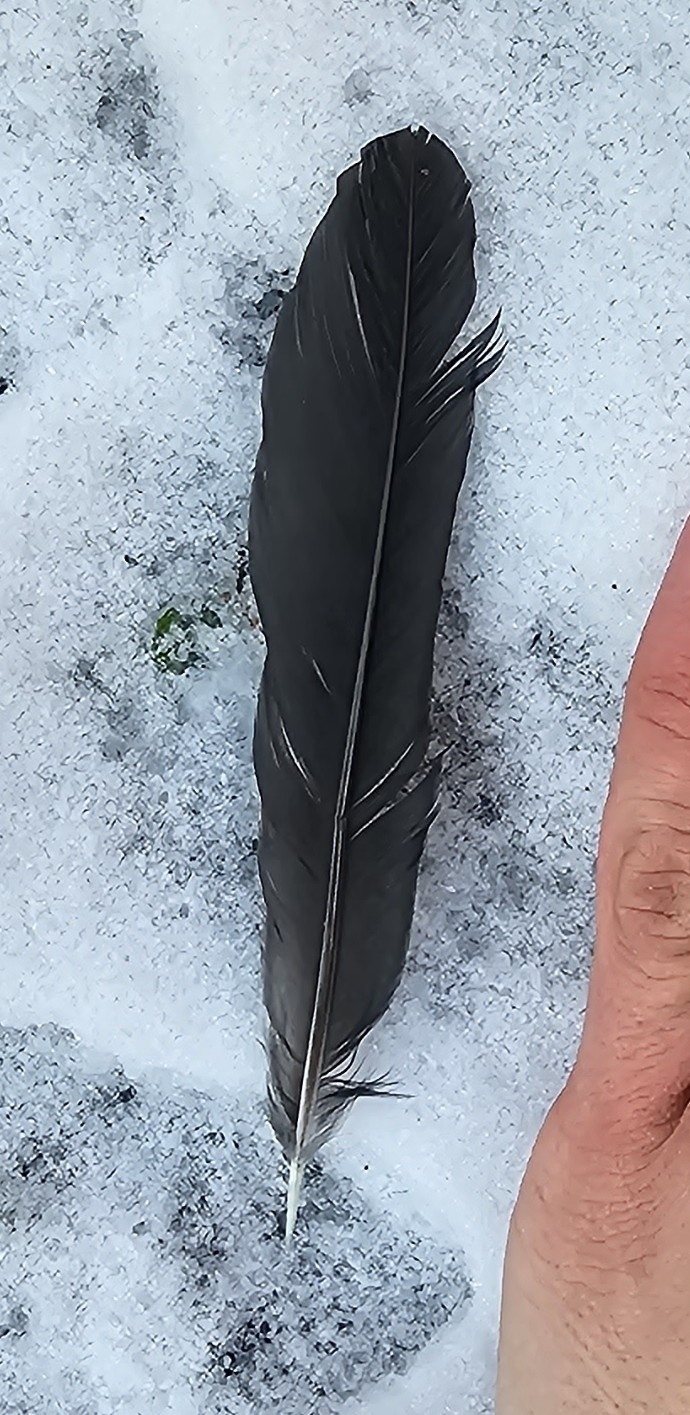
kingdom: Animalia
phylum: Chordata
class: Aves
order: Passeriformes
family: Turdidae
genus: Turdus
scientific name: Turdus merula
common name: Common blackbird
